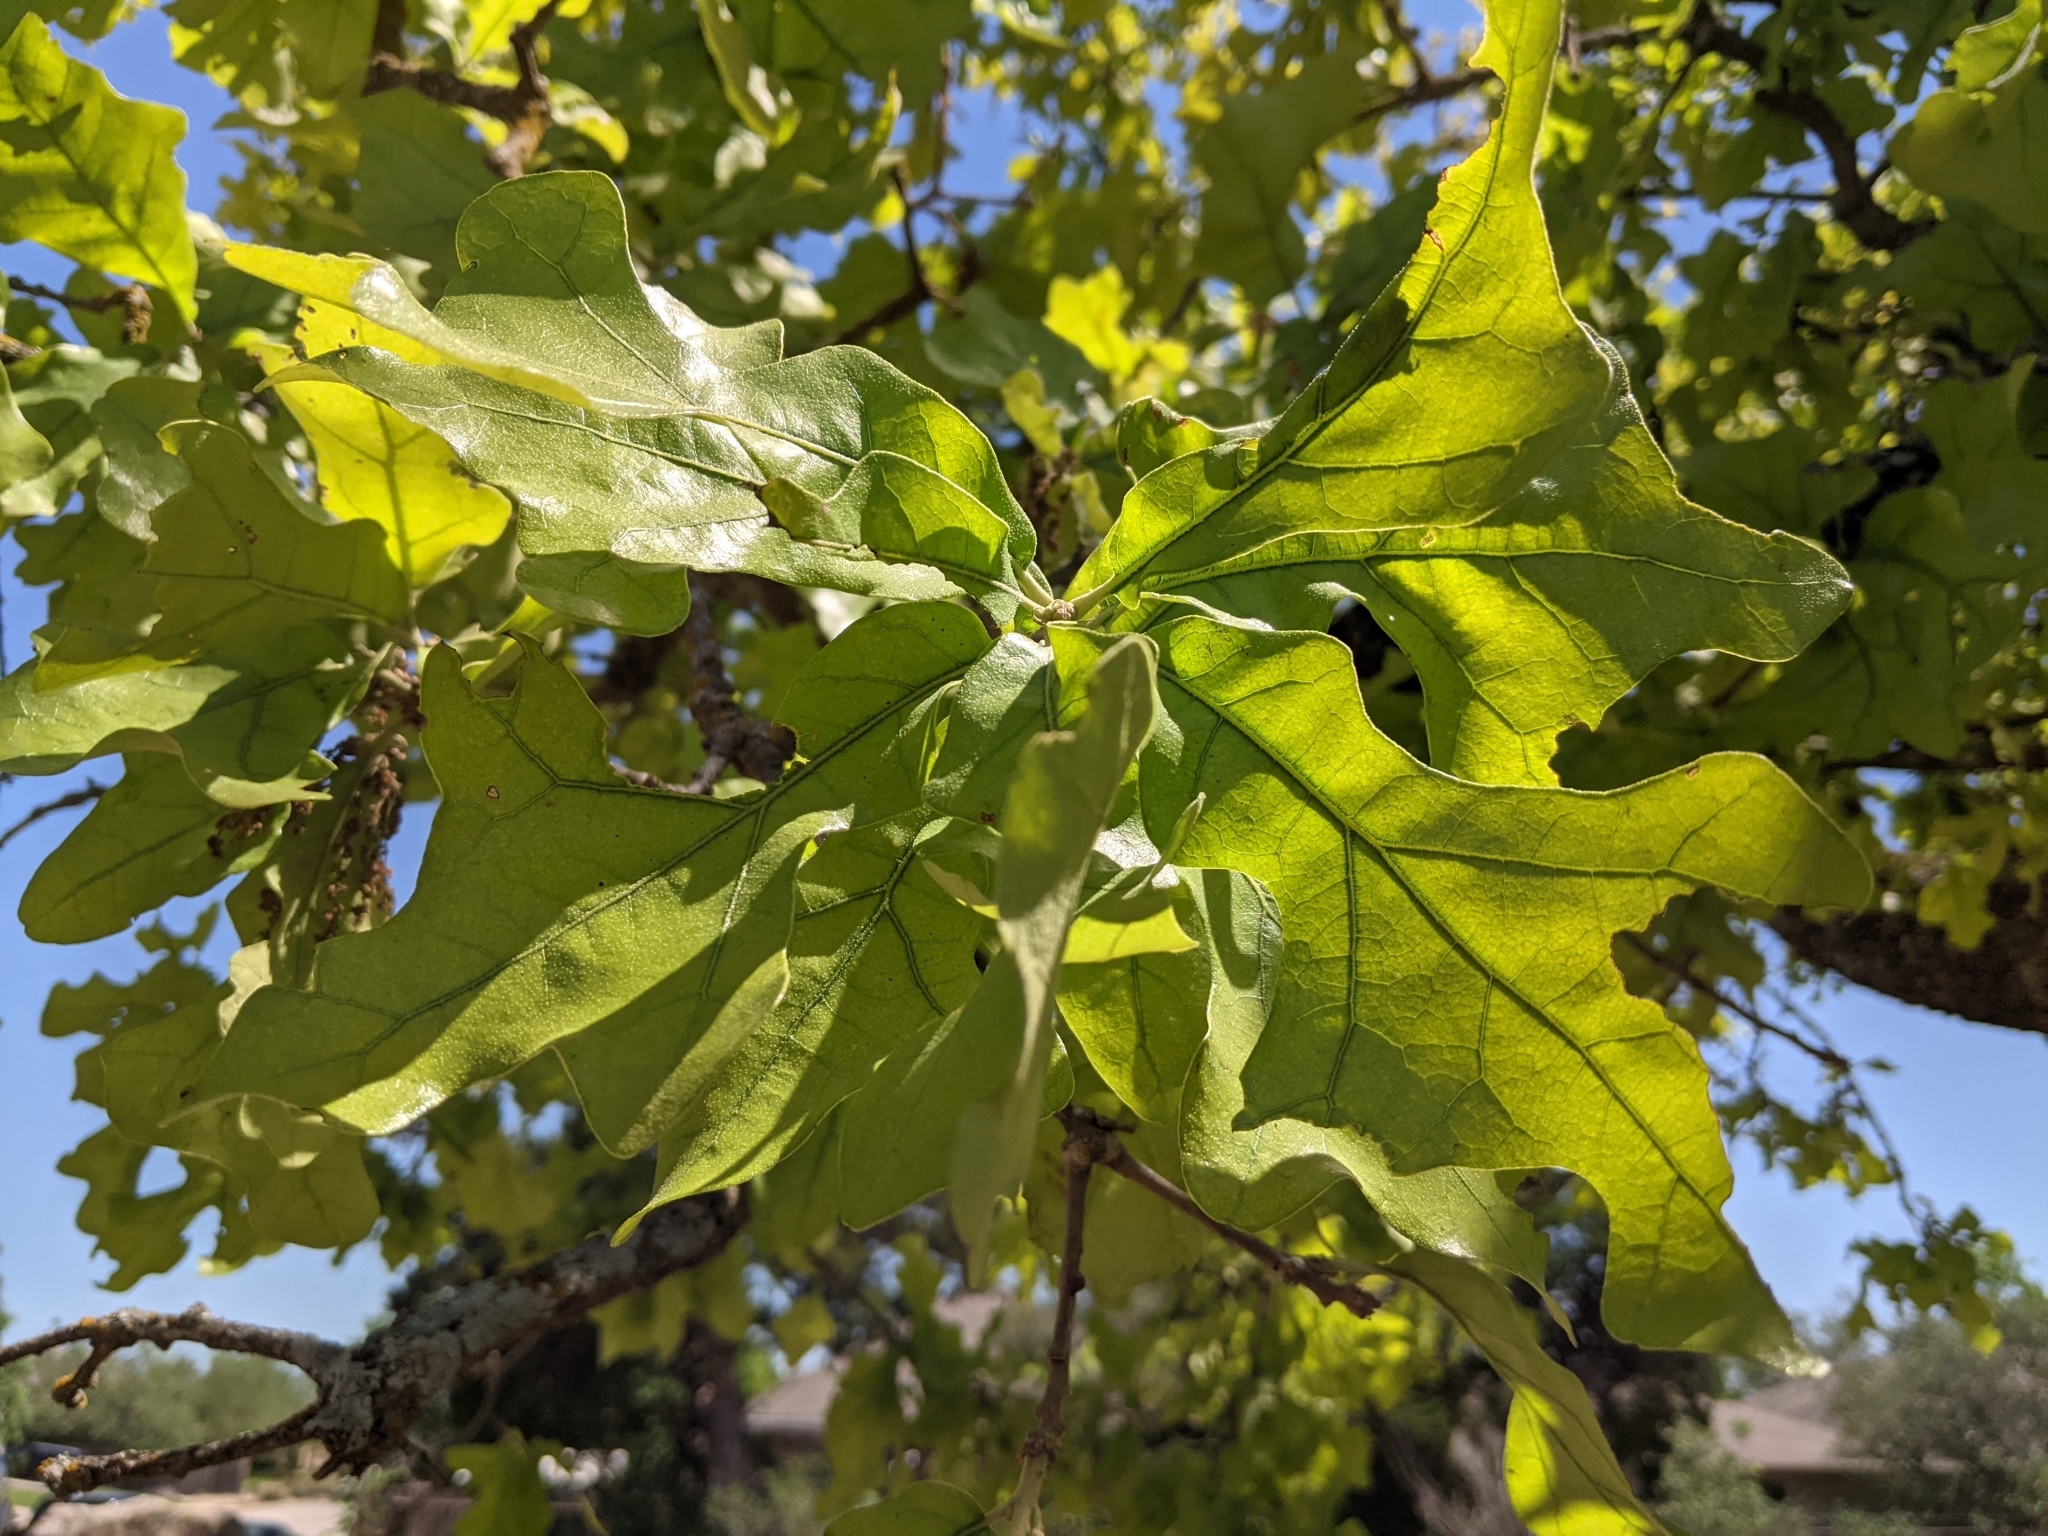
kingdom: Plantae
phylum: Tracheophyta
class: Magnoliopsida
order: Fagales
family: Fagaceae
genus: Quercus
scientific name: Quercus stellata
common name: Post oak
